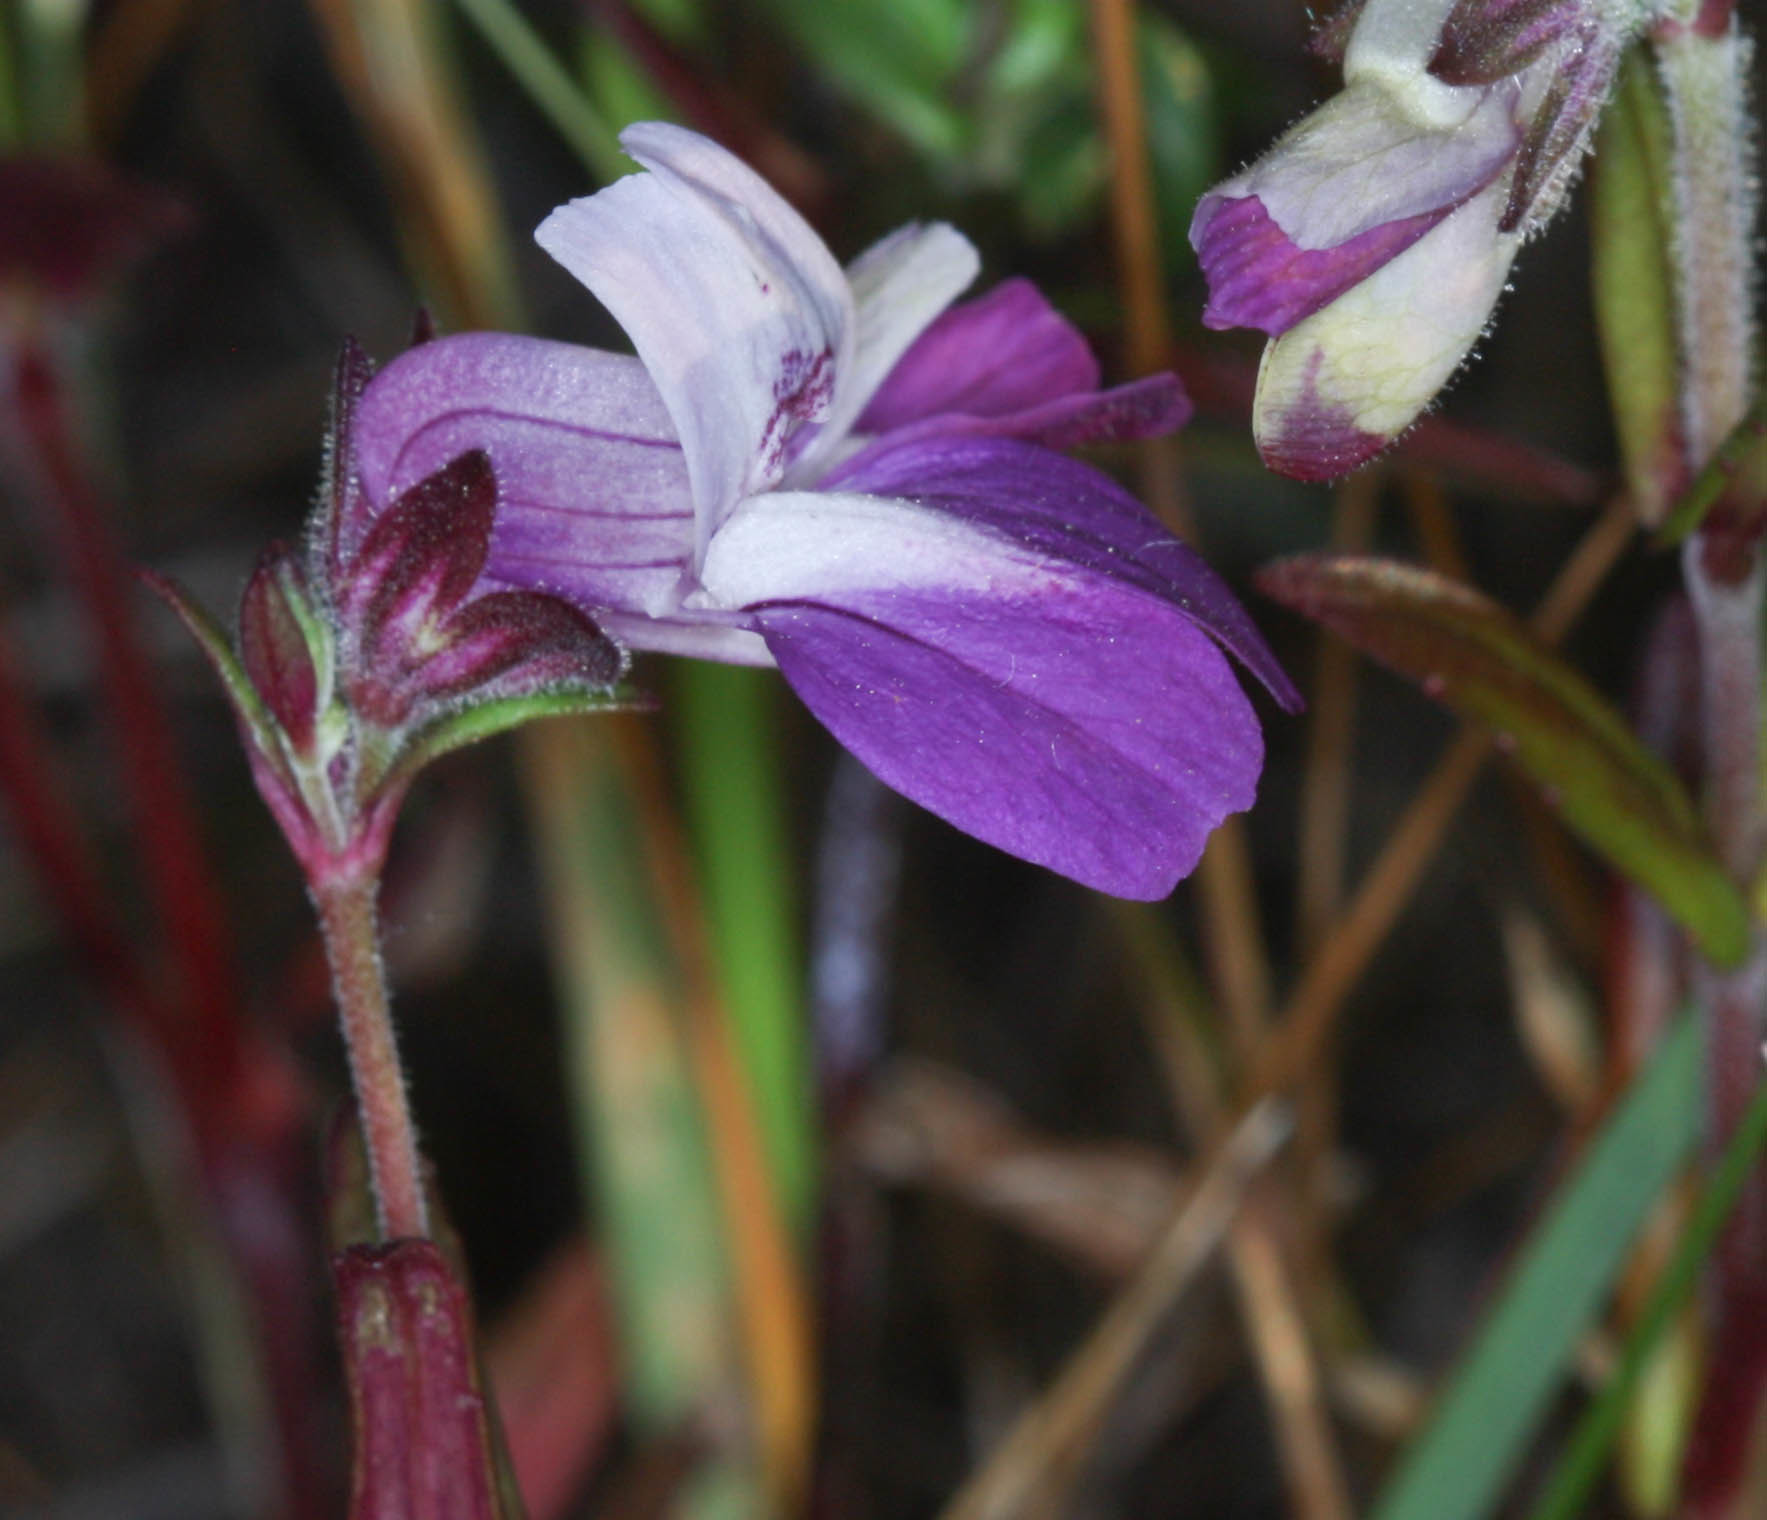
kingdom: Plantae
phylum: Tracheophyta
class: Magnoliopsida
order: Lamiales
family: Plantaginaceae
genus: Collinsia
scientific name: Collinsia sparsiflora
